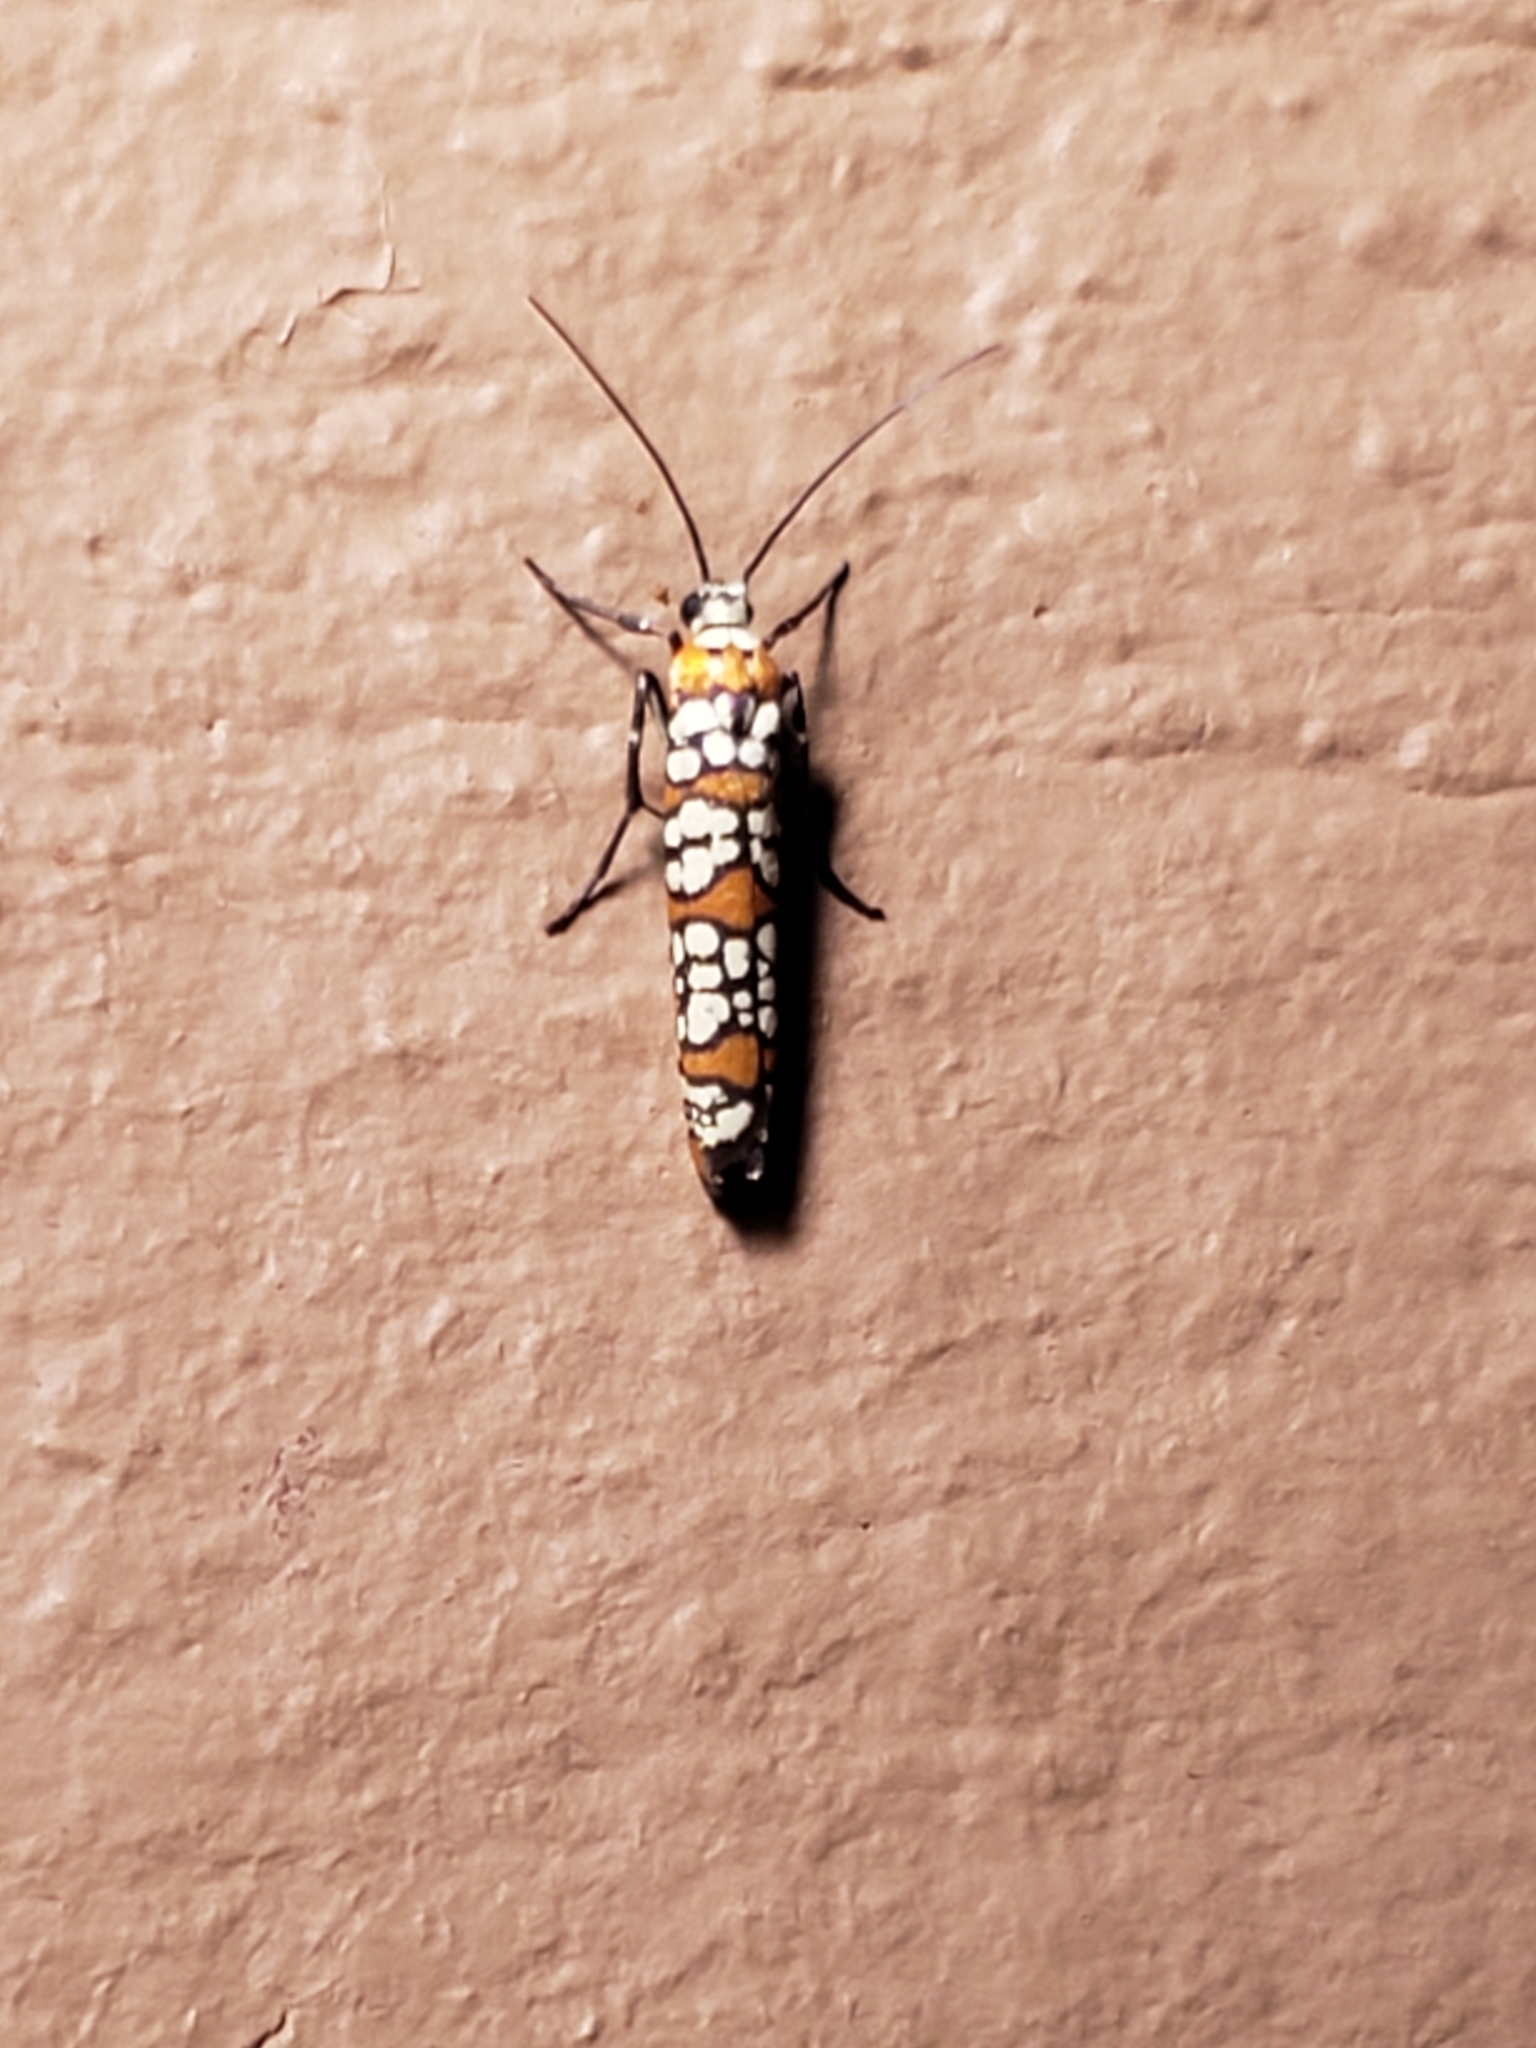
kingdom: Animalia
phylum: Arthropoda
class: Insecta
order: Lepidoptera
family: Attevidae
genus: Atteva
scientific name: Atteva punctella
